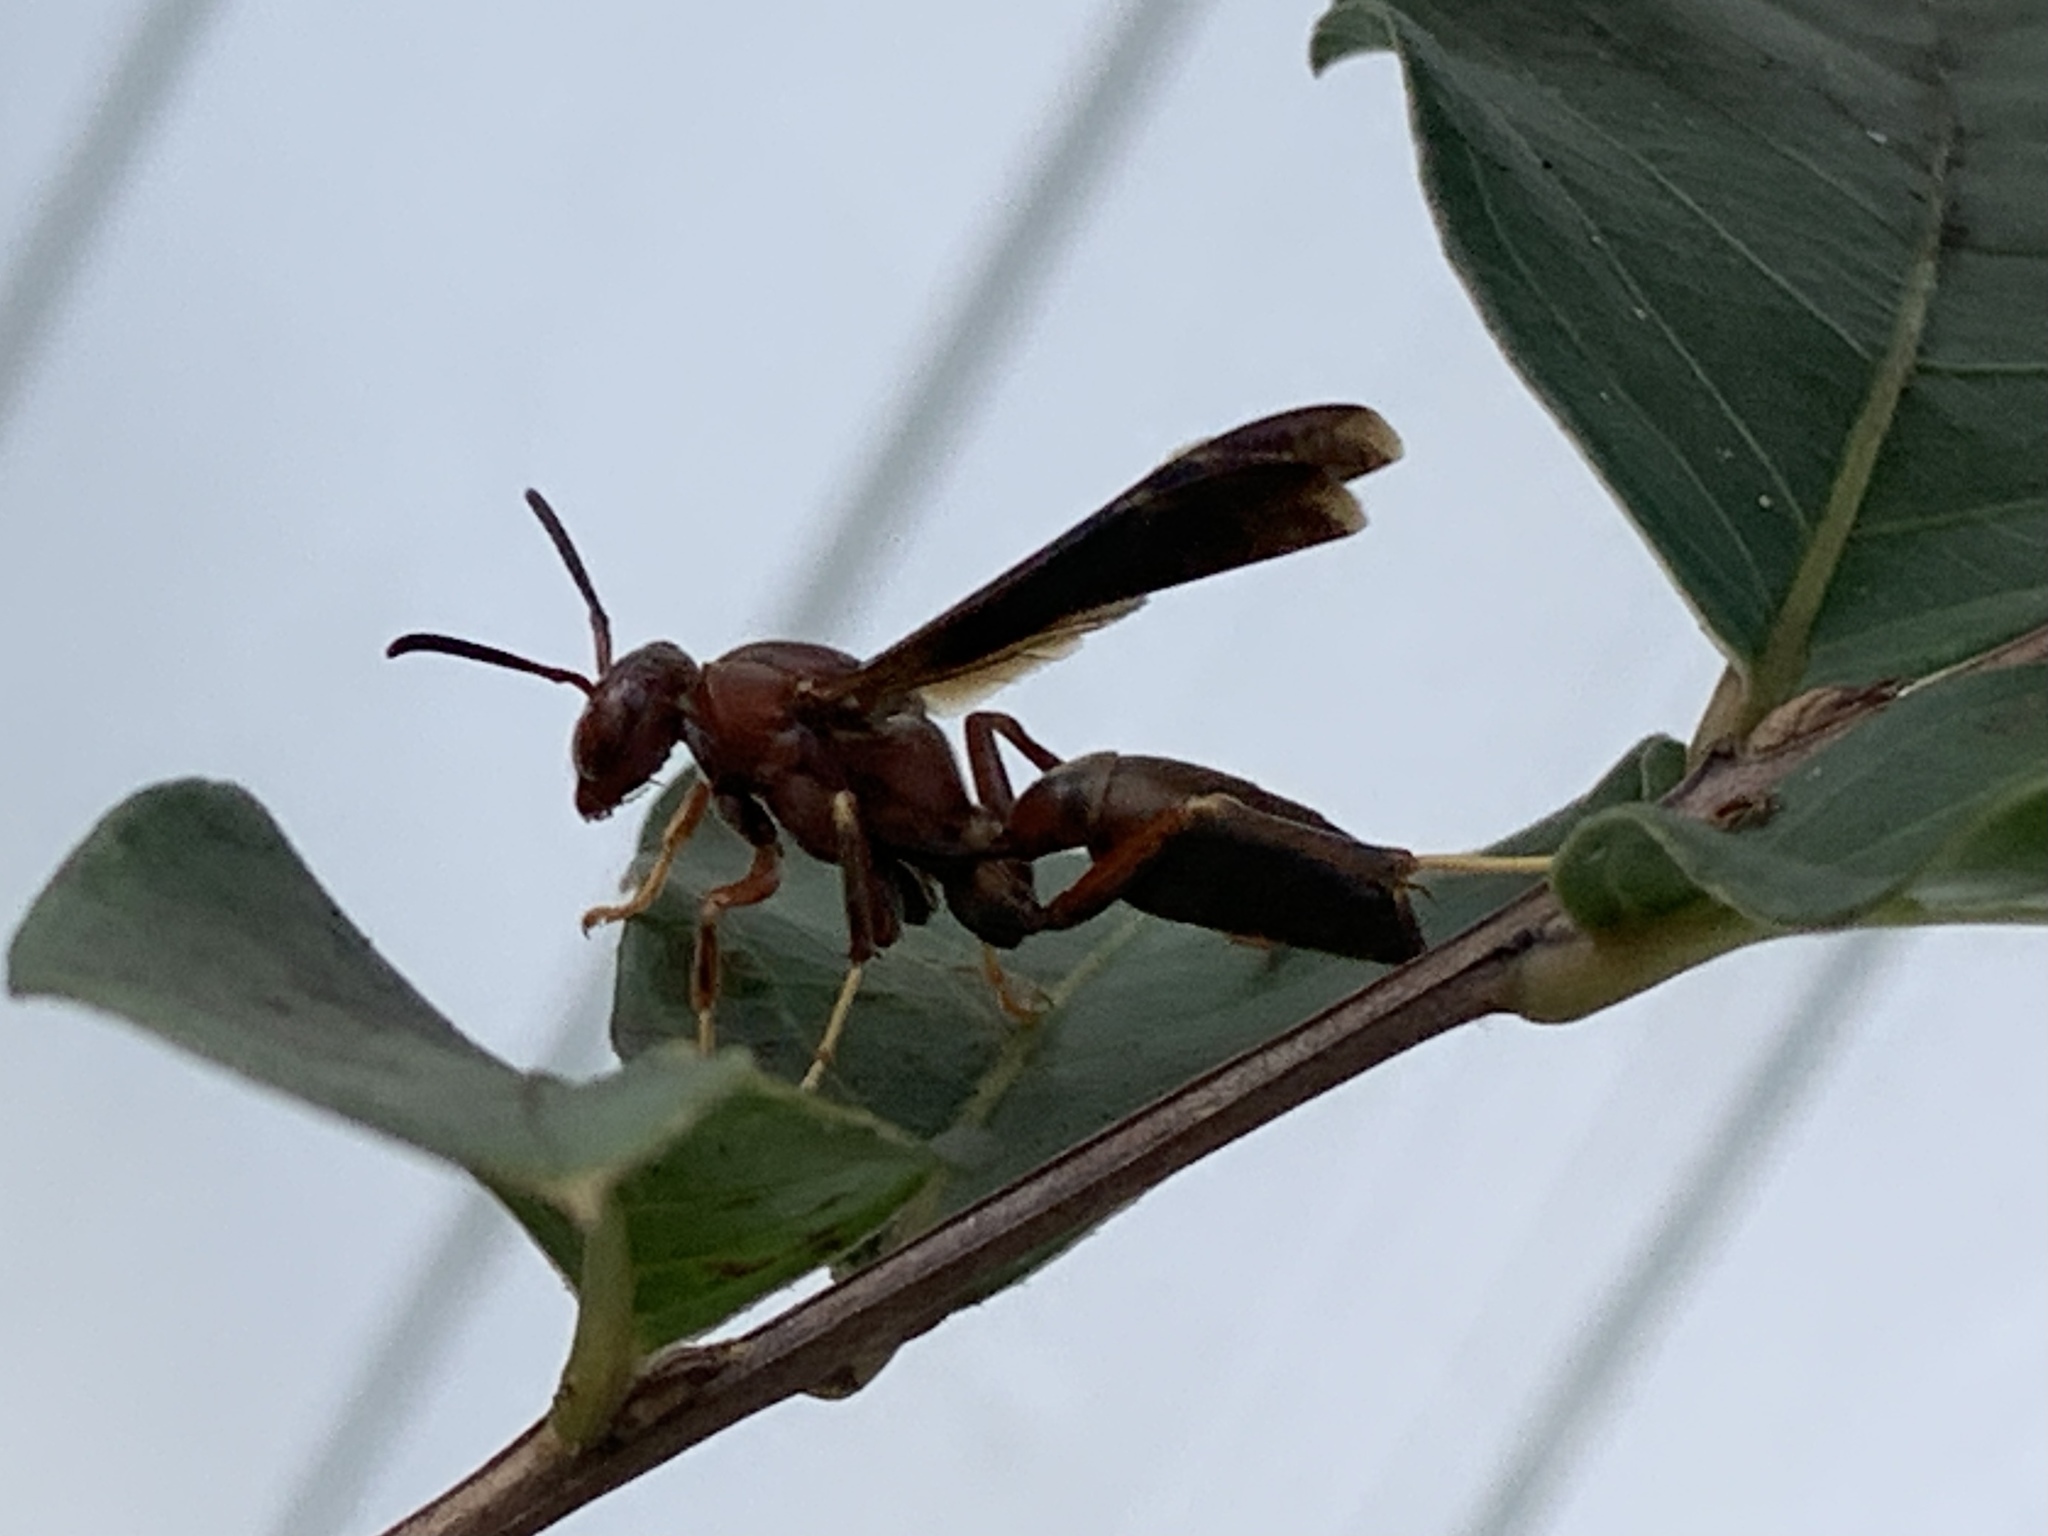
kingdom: Animalia
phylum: Arthropoda
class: Insecta
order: Hymenoptera
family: Eumenidae
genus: Polistes
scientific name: Polistes metricus
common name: Metric paper wasp
